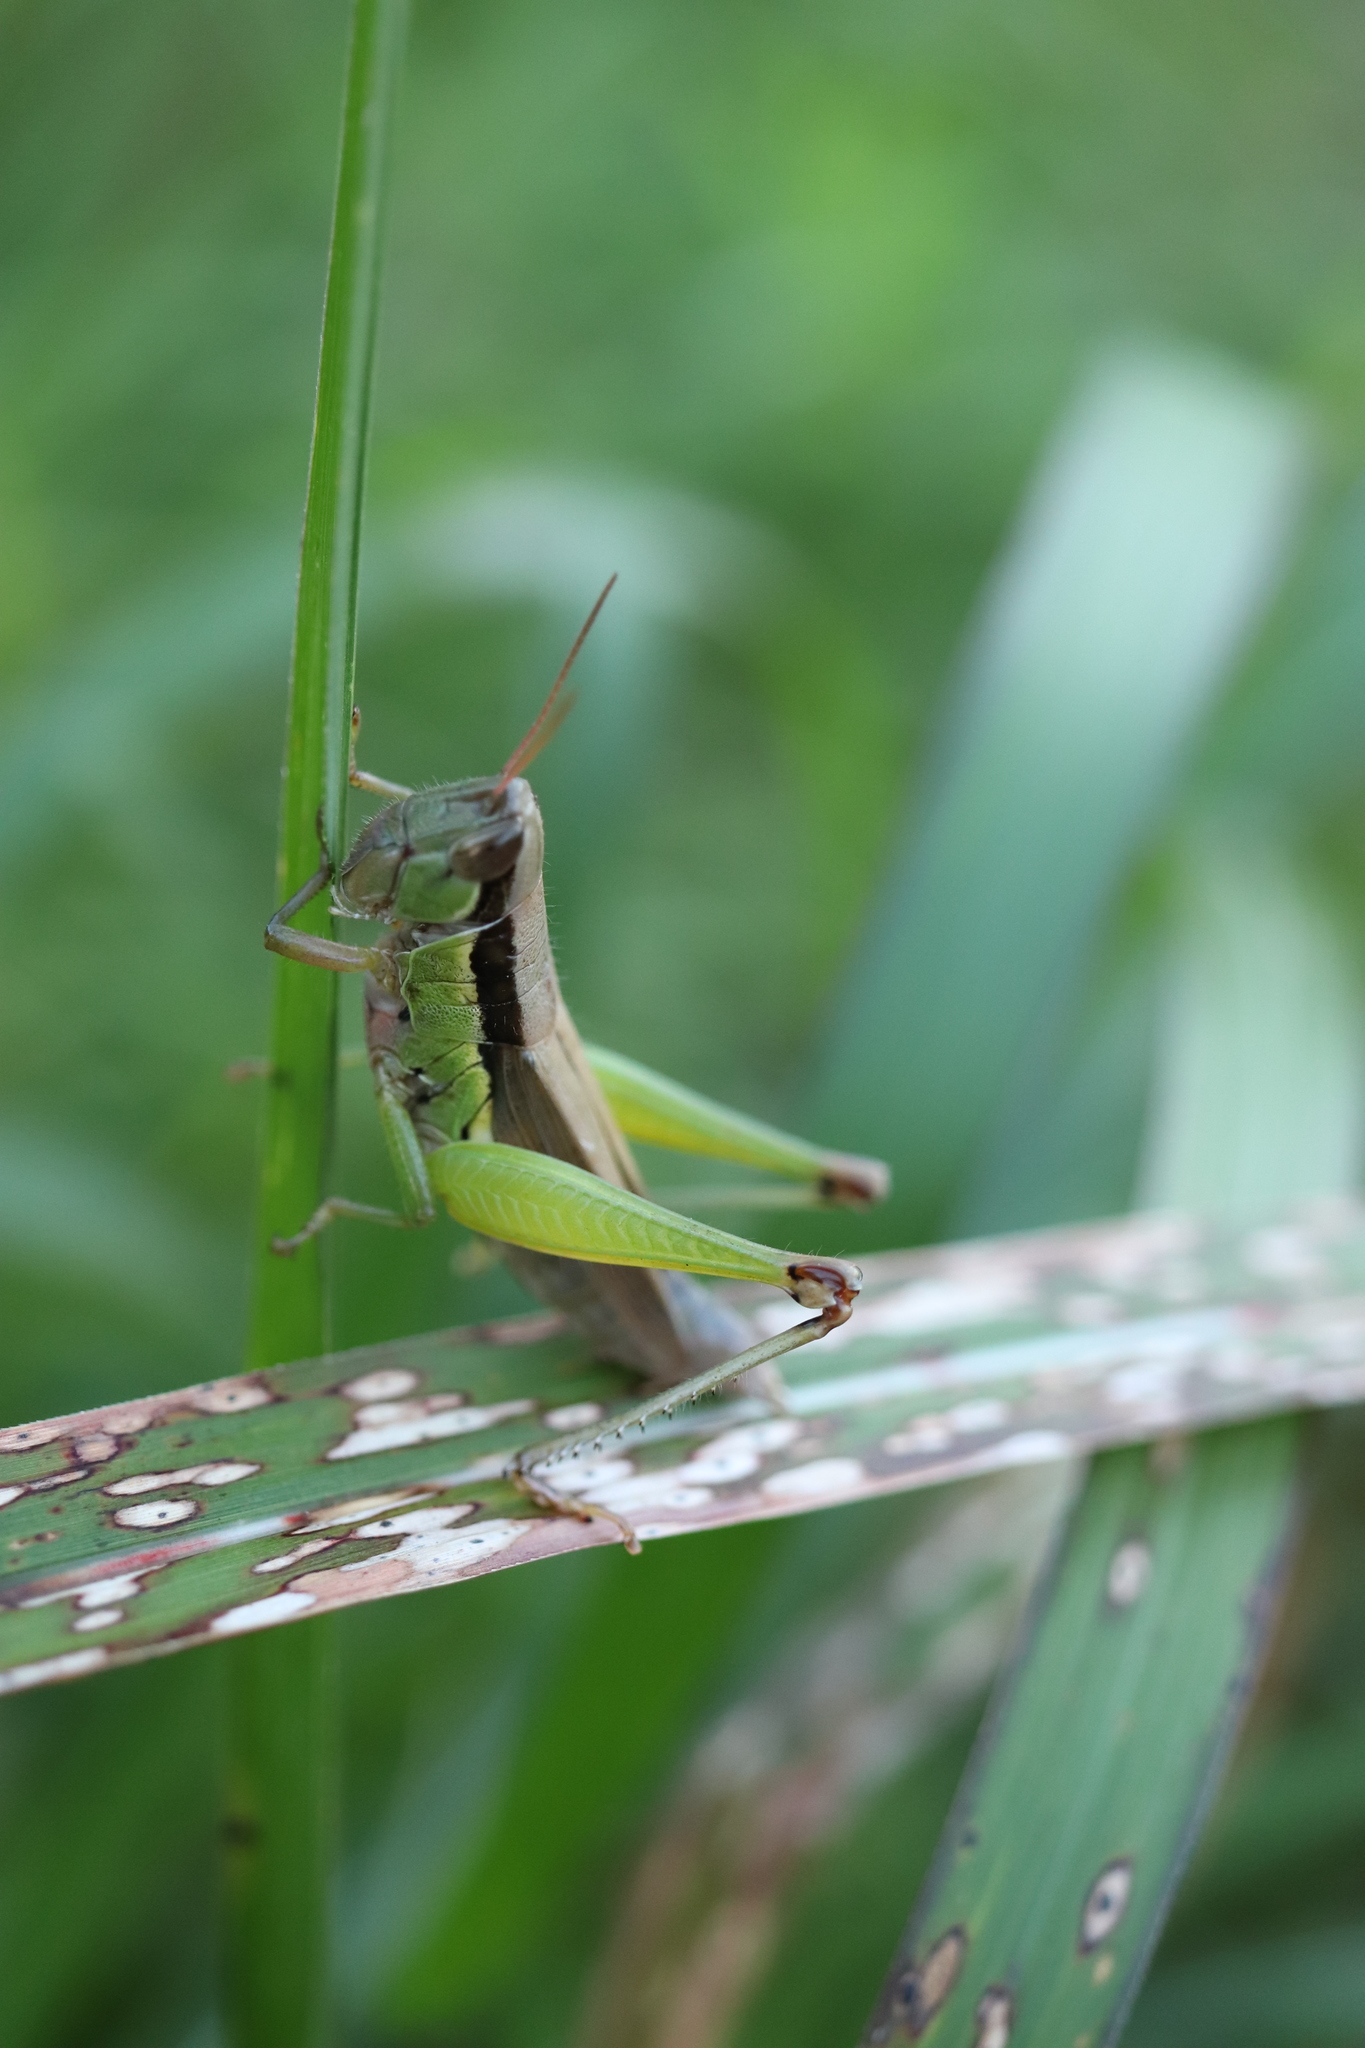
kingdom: Animalia
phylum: Arthropoda
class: Insecta
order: Orthoptera
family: Acrididae
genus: Oxya
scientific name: Oxya yezoensis
